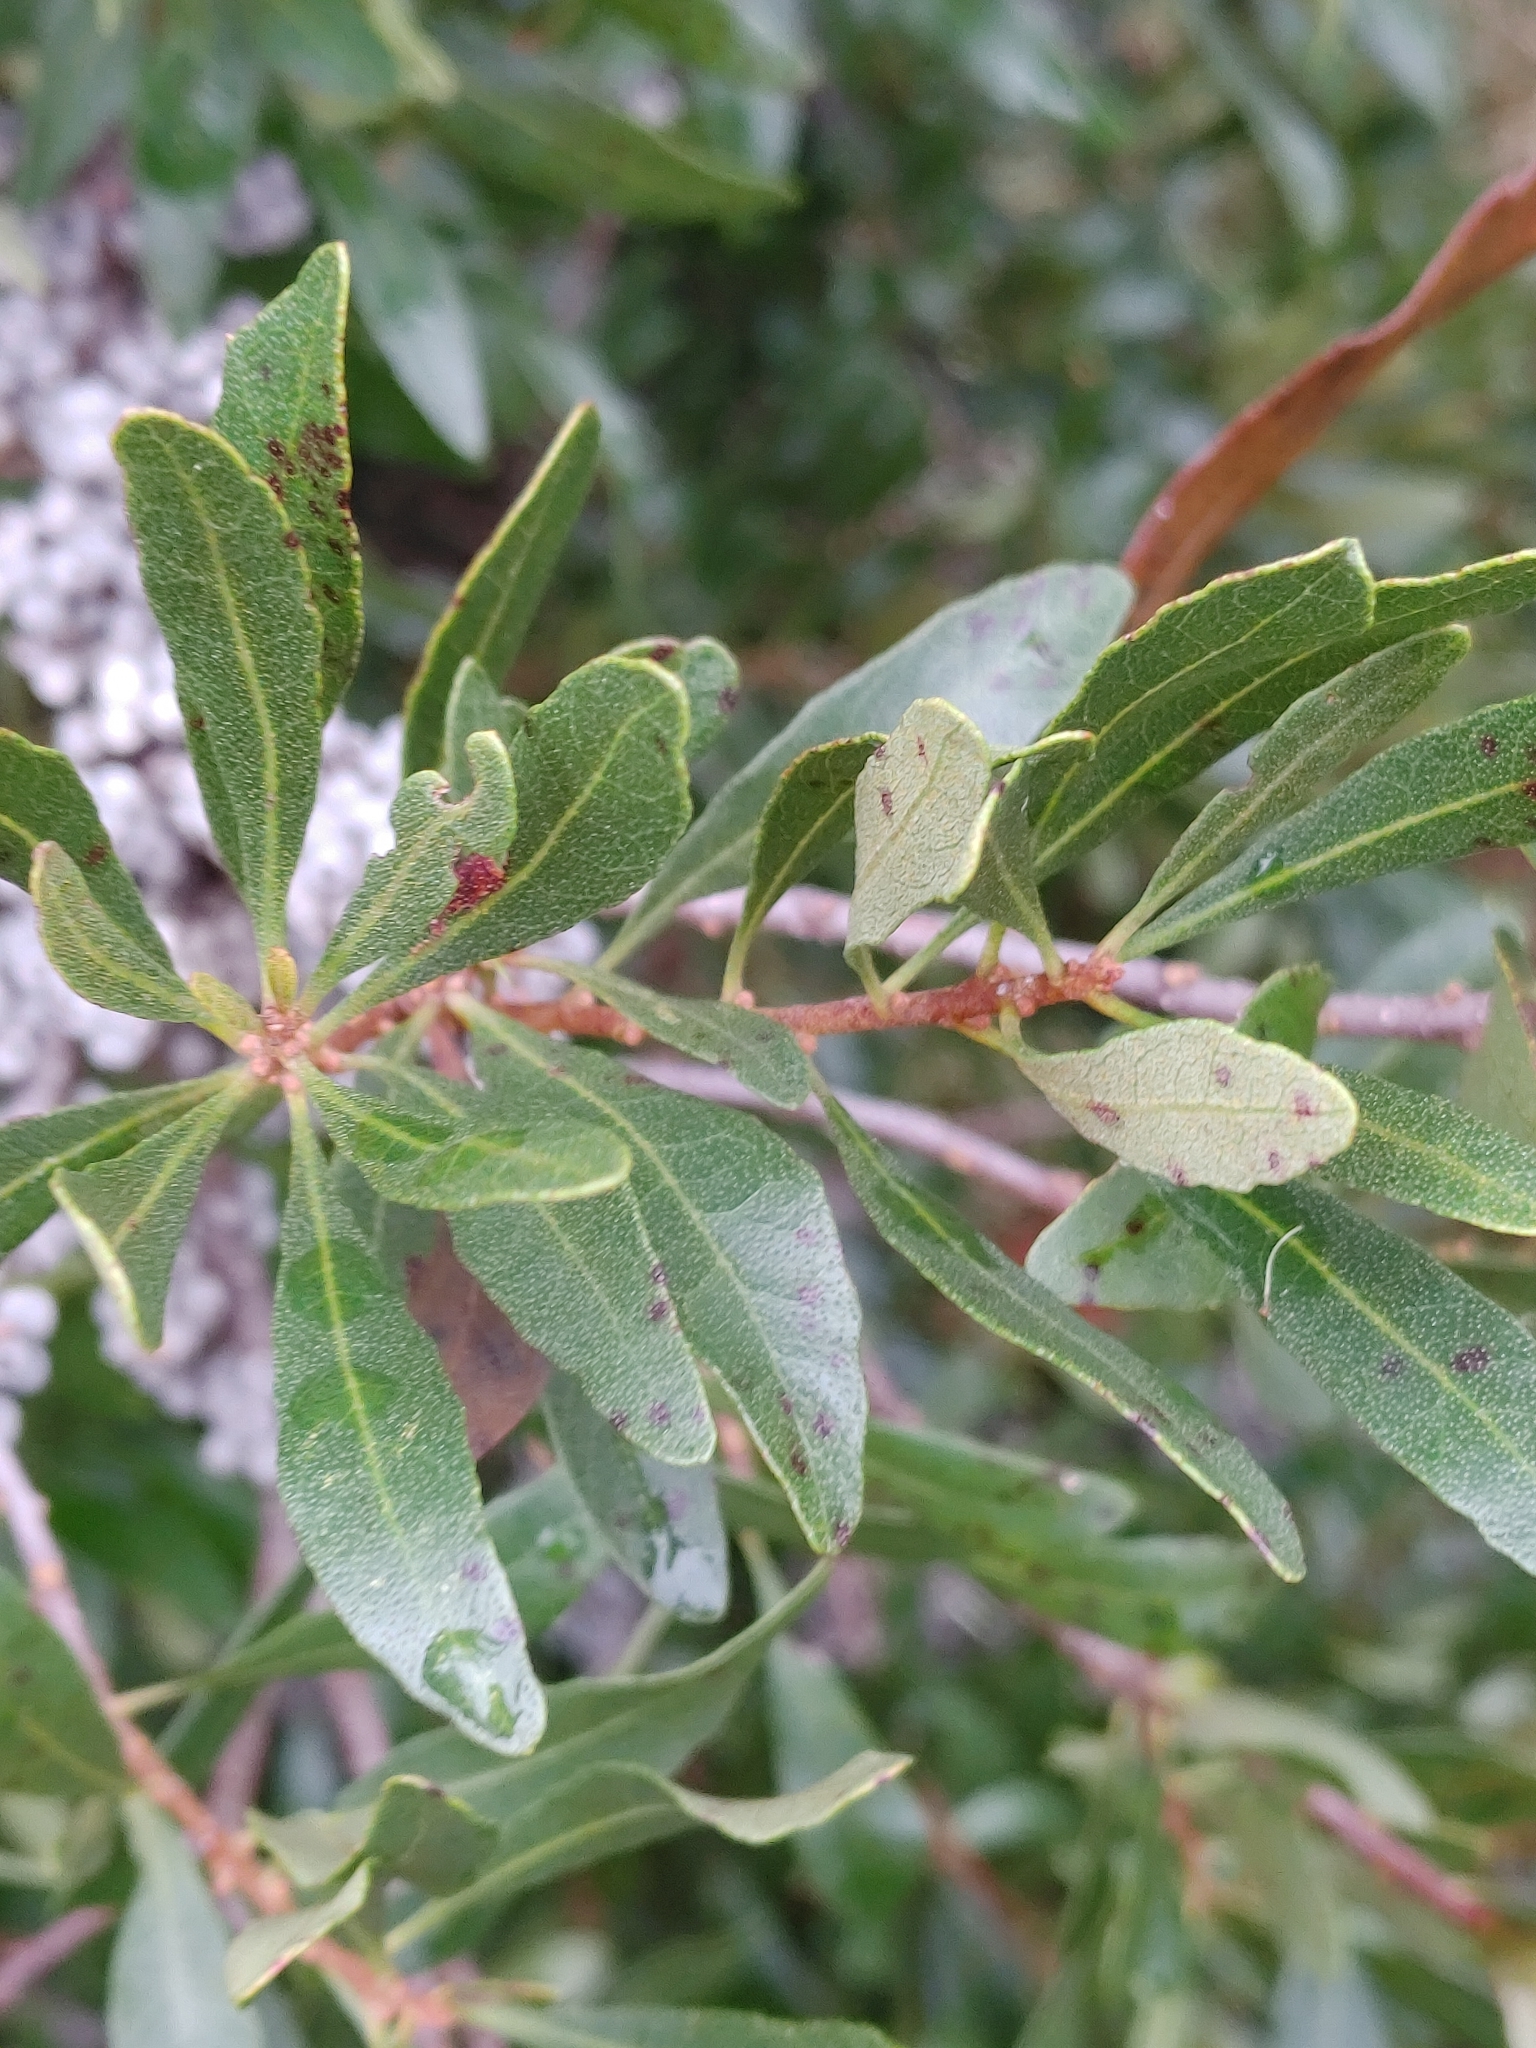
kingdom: Plantae
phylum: Tracheophyta
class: Magnoliopsida
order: Fagales
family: Myricaceae
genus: Morella
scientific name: Morella cerifera
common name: Wax myrtle
